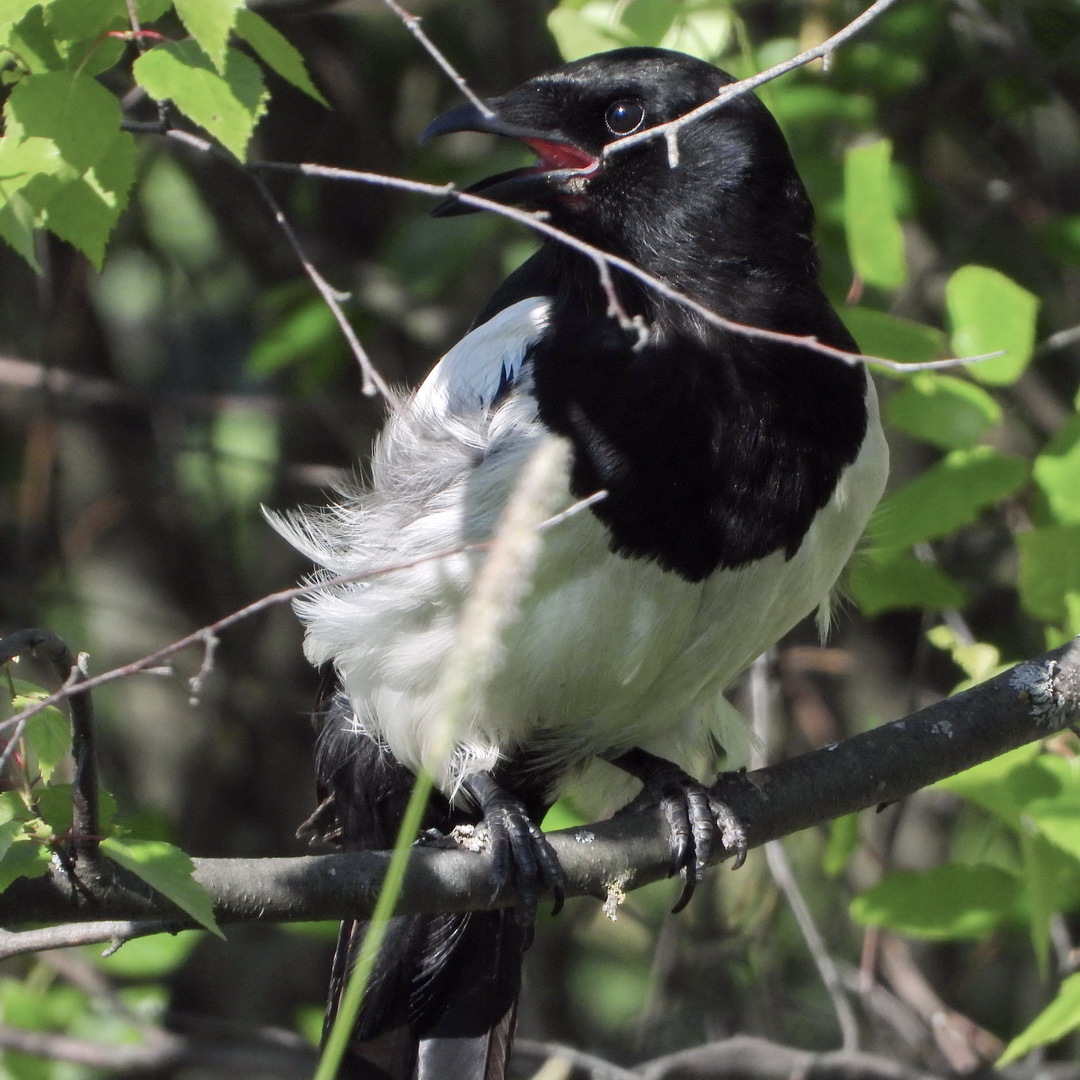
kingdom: Animalia
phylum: Chordata
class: Aves
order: Passeriformes
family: Corvidae
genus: Pica
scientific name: Pica pica
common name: Eurasian magpie
